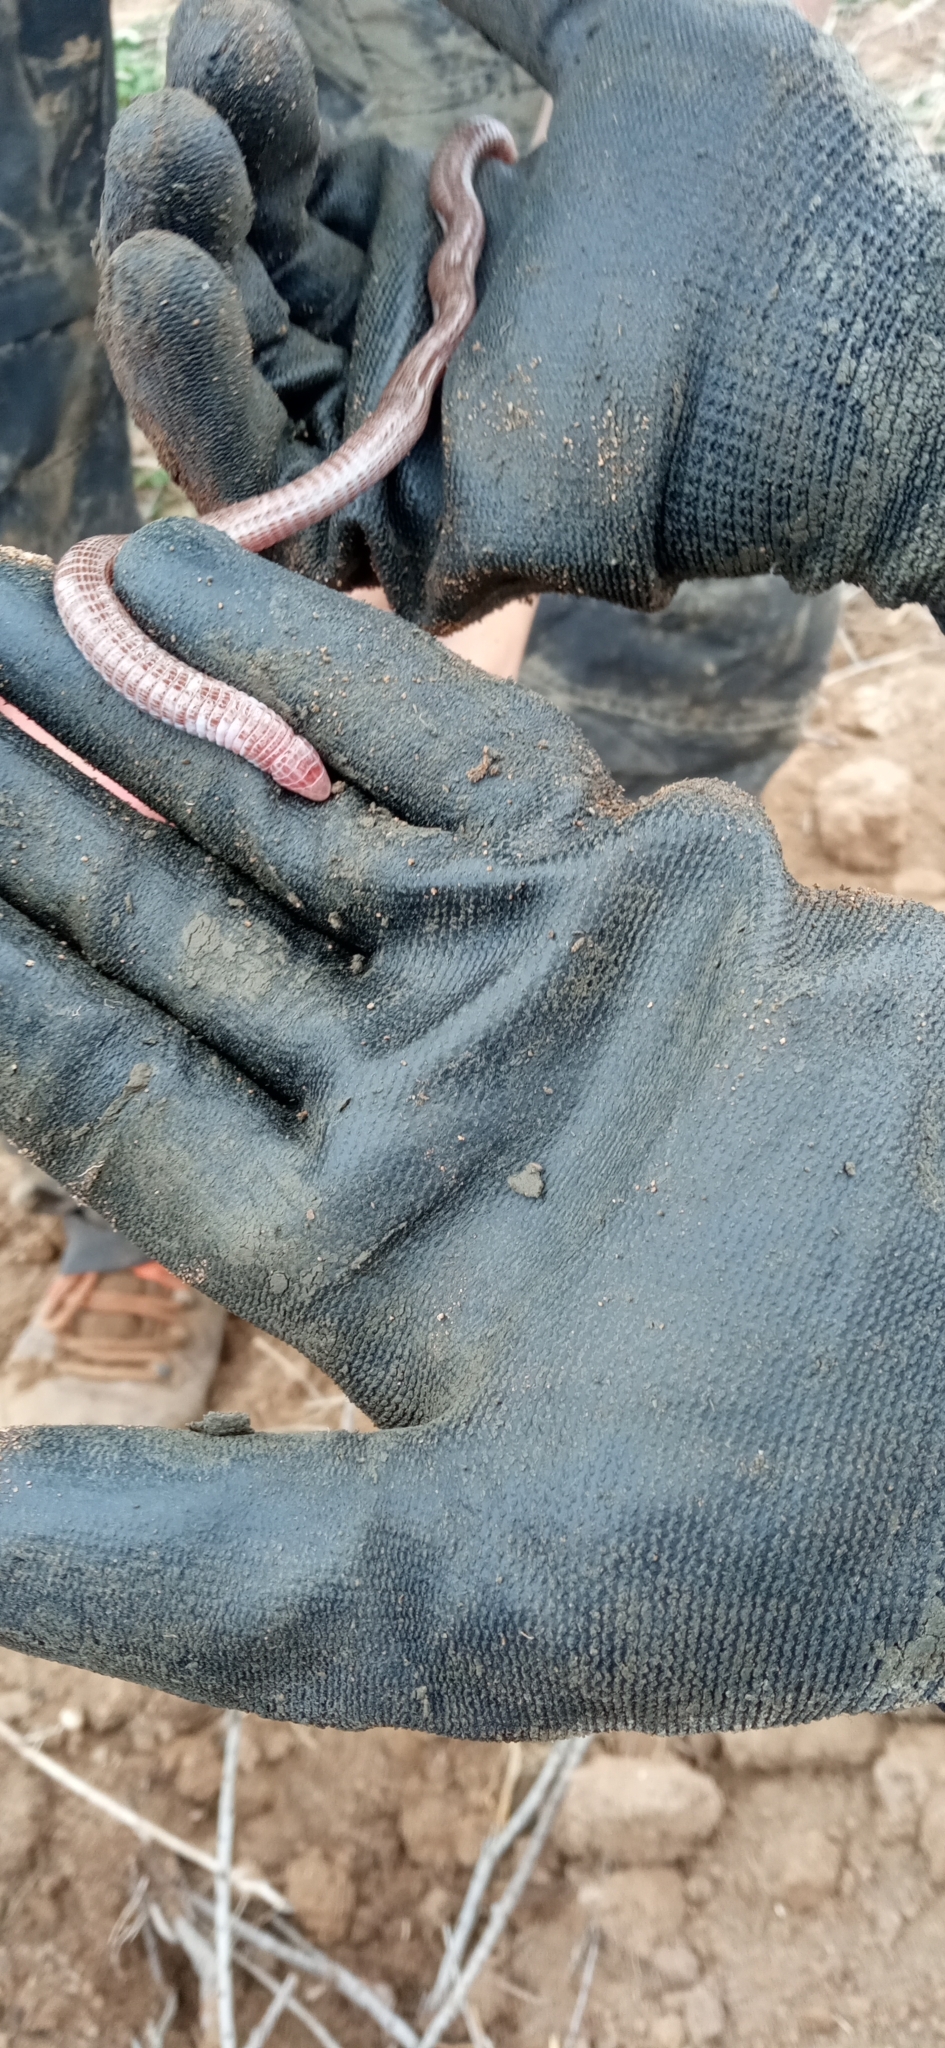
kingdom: Animalia
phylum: Chordata
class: Squamata
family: Blanidae
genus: Blanus
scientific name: Blanus vandellii
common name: Vandelli's worm lizard
